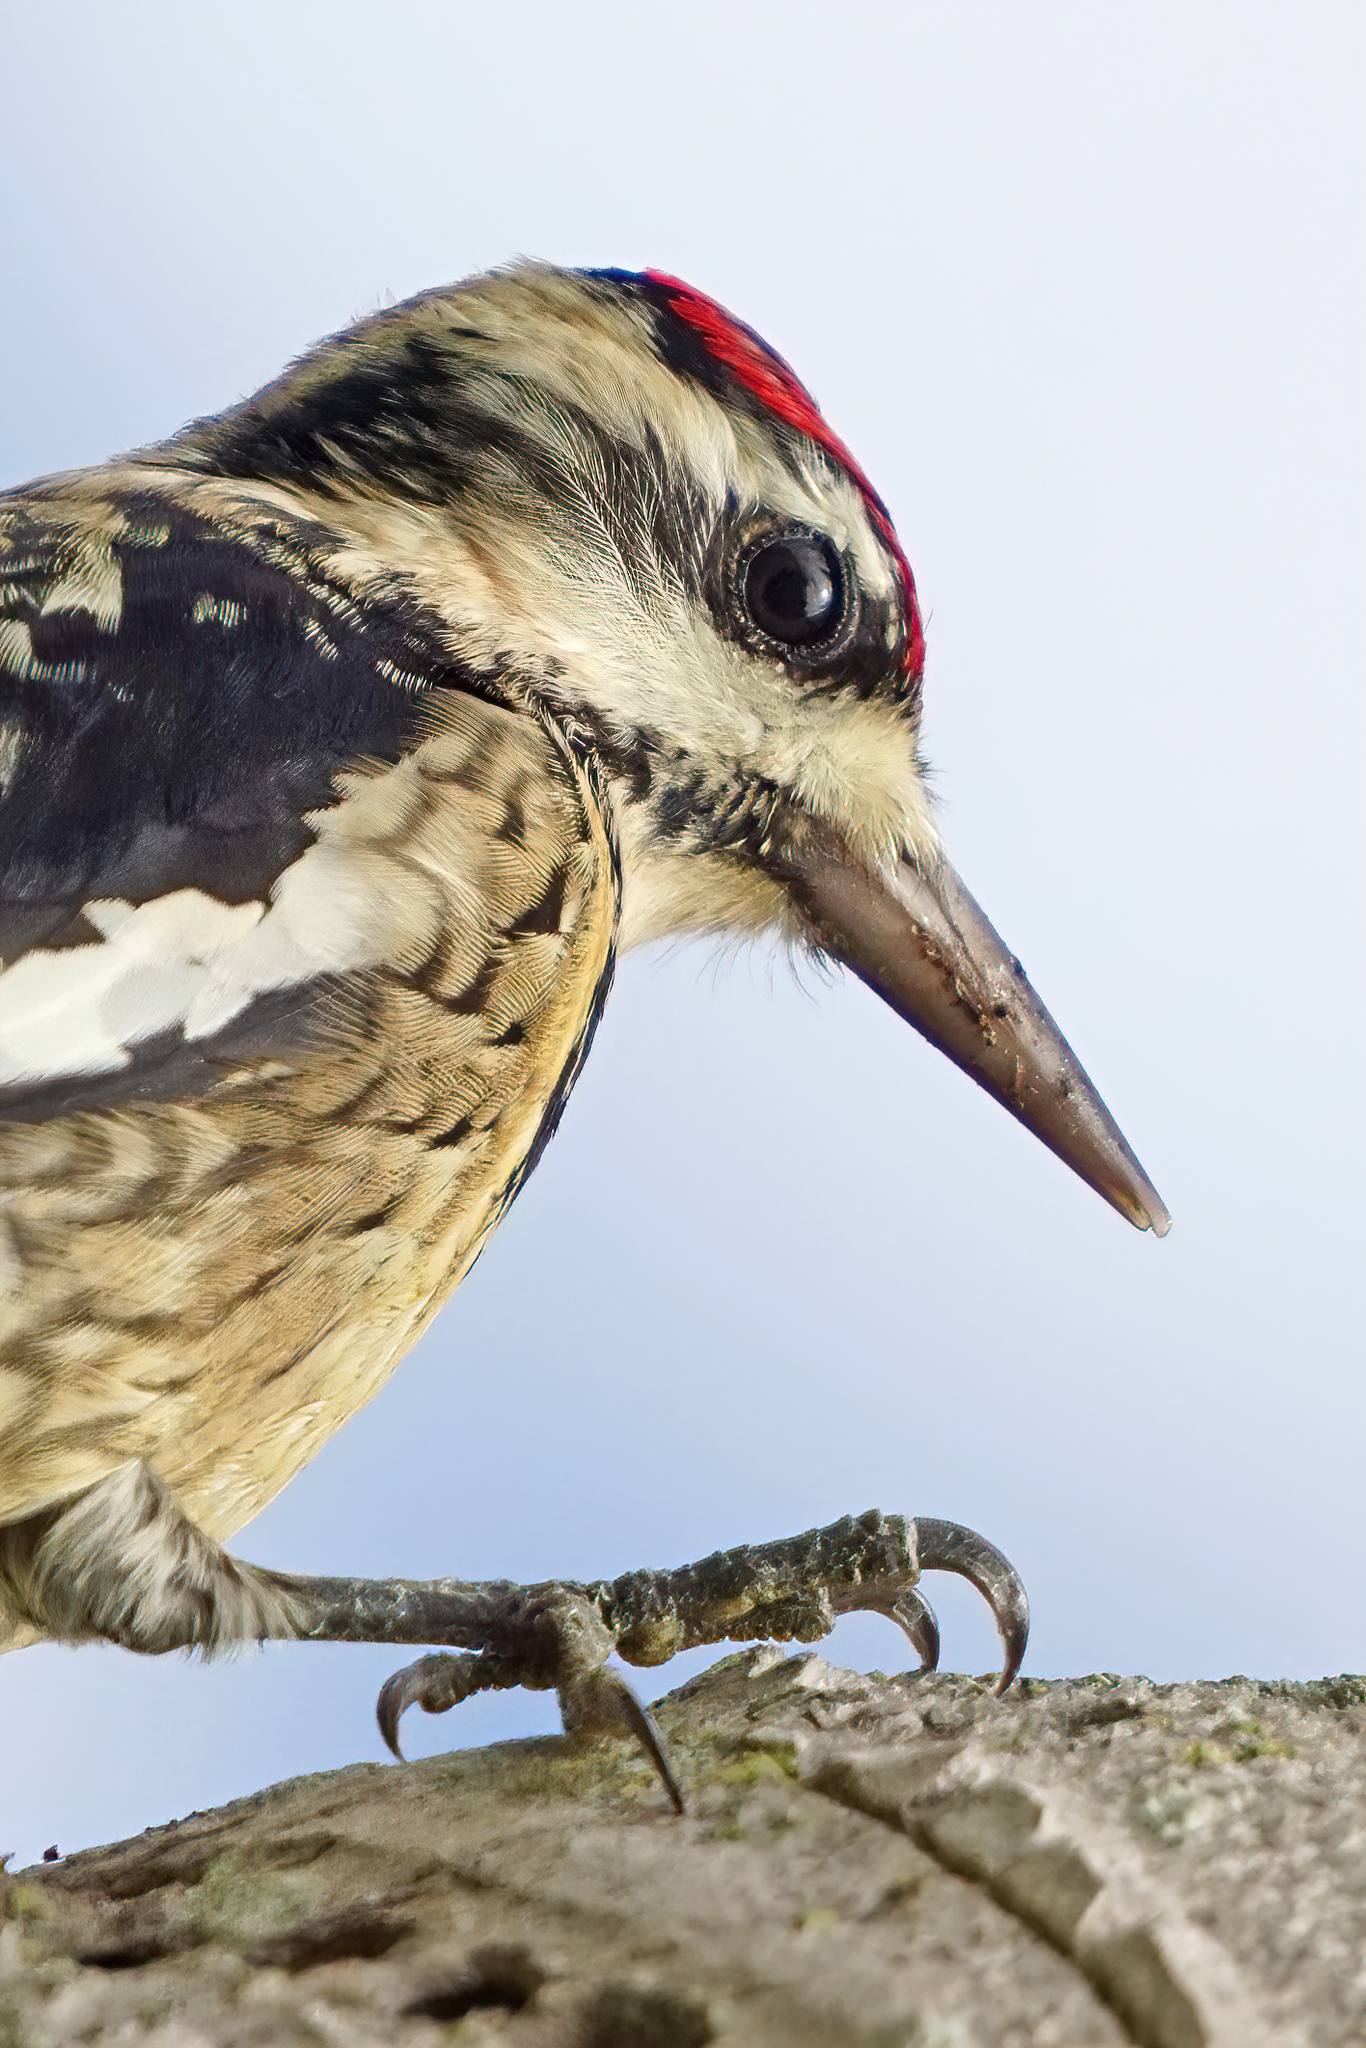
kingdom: Animalia
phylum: Chordata
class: Aves
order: Piciformes
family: Picidae
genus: Sphyrapicus
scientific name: Sphyrapicus varius
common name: Yellow-bellied sapsucker
